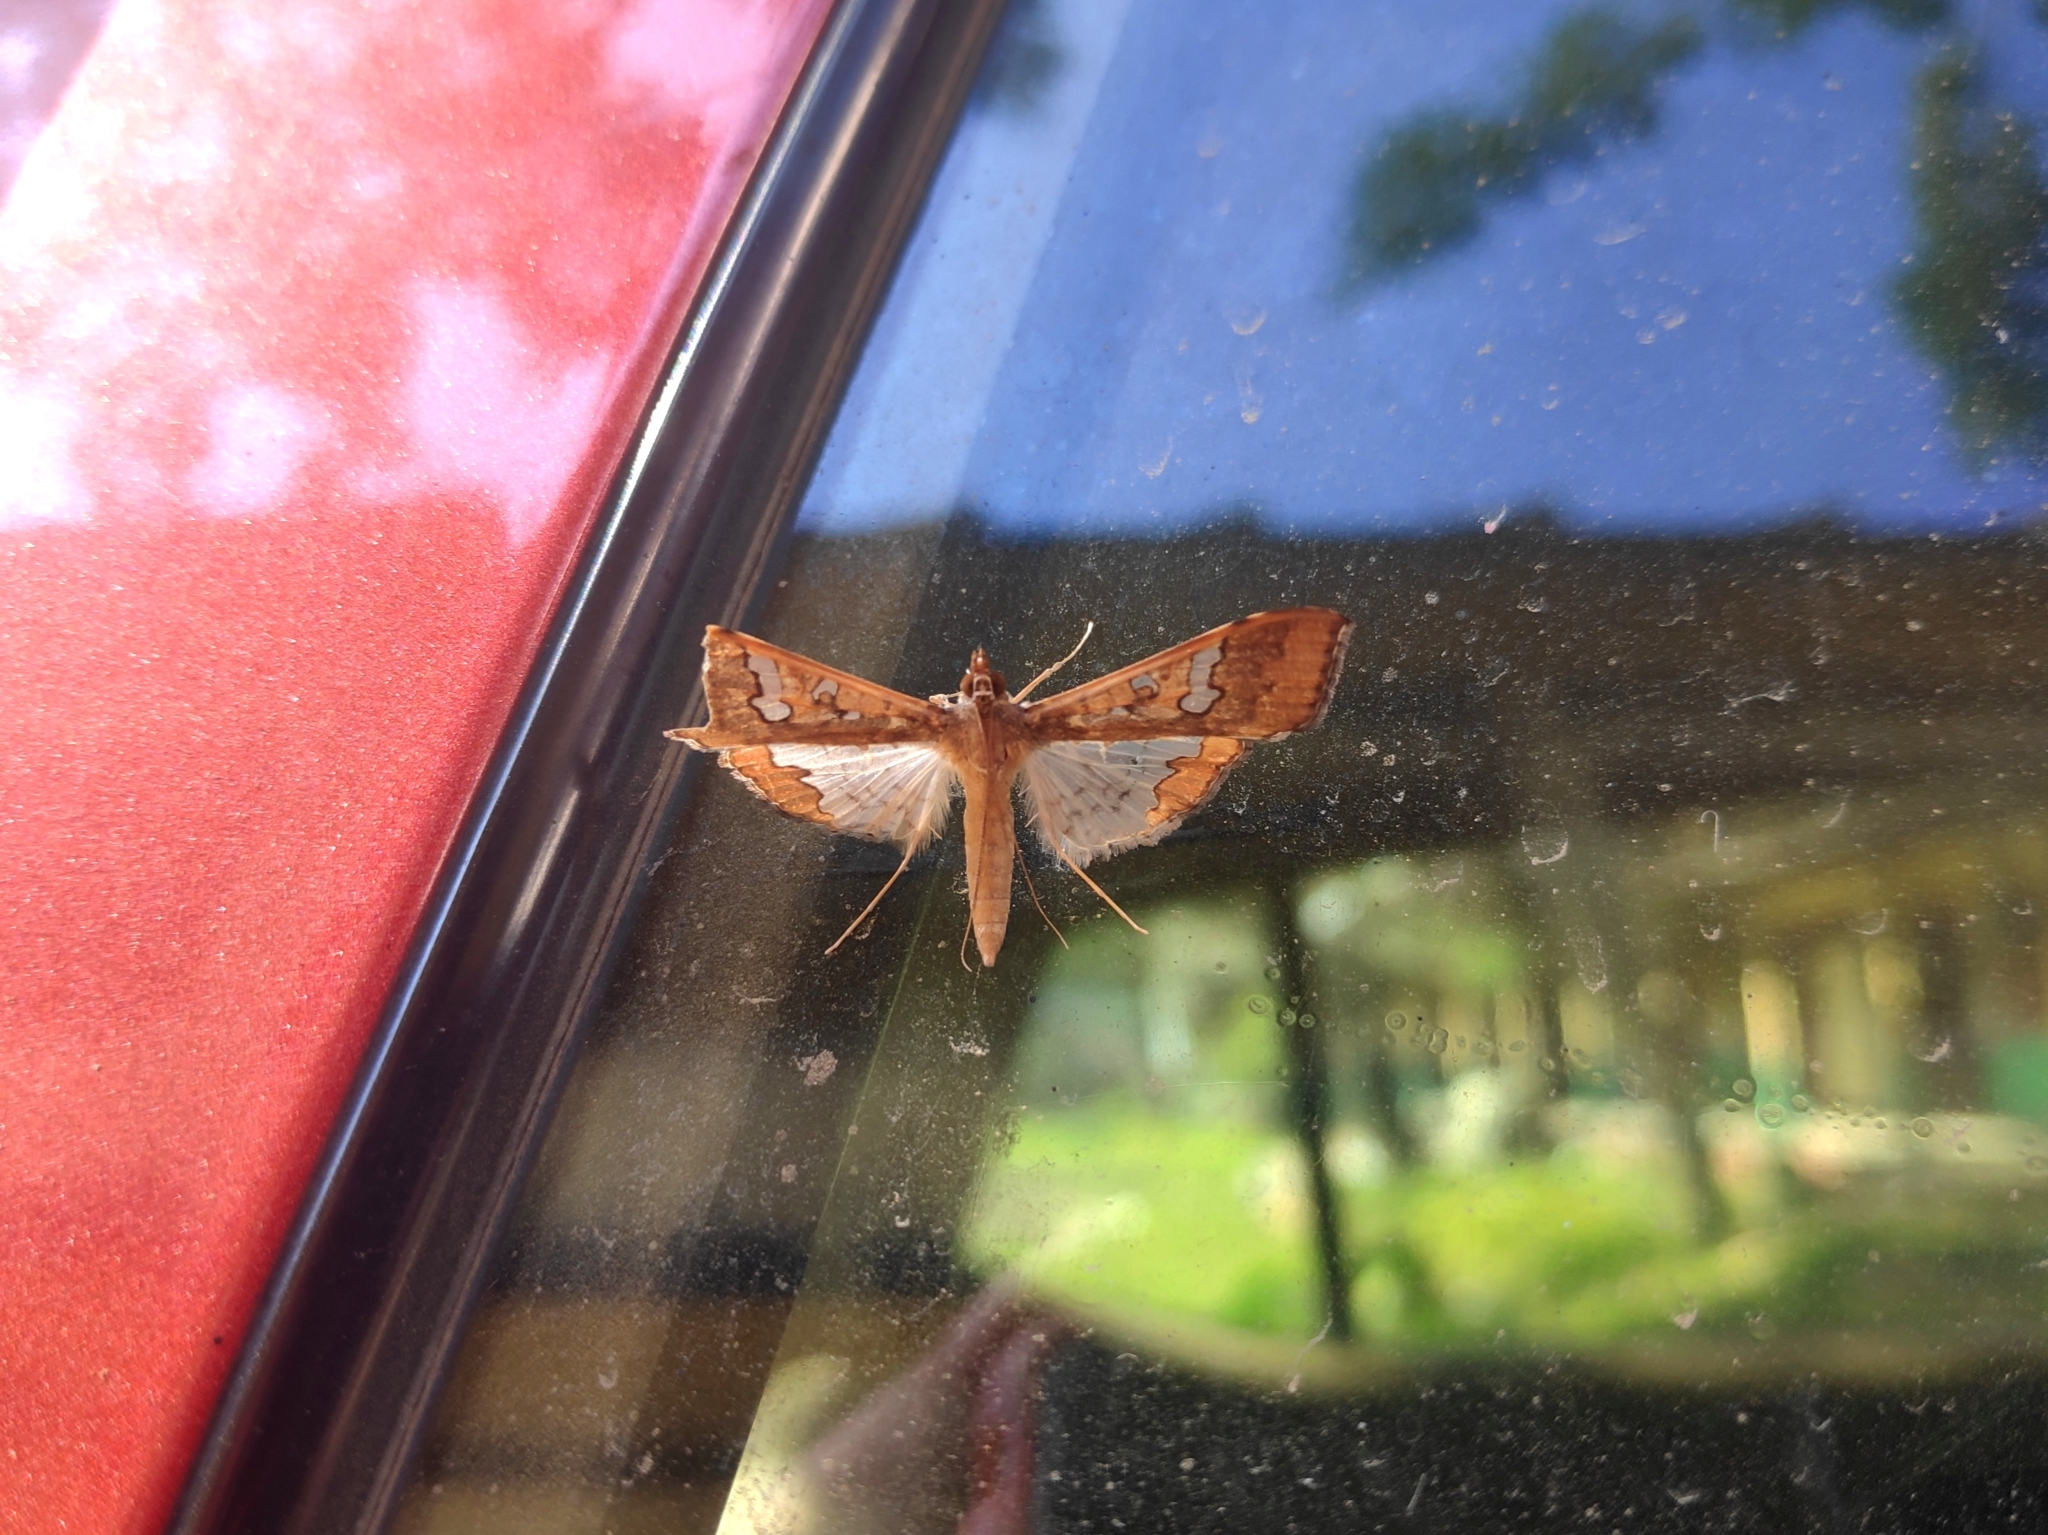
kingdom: Animalia
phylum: Arthropoda
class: Insecta
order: Lepidoptera
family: Crambidae
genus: Maruca
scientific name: Maruca vitrata
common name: Maruca pod borer
